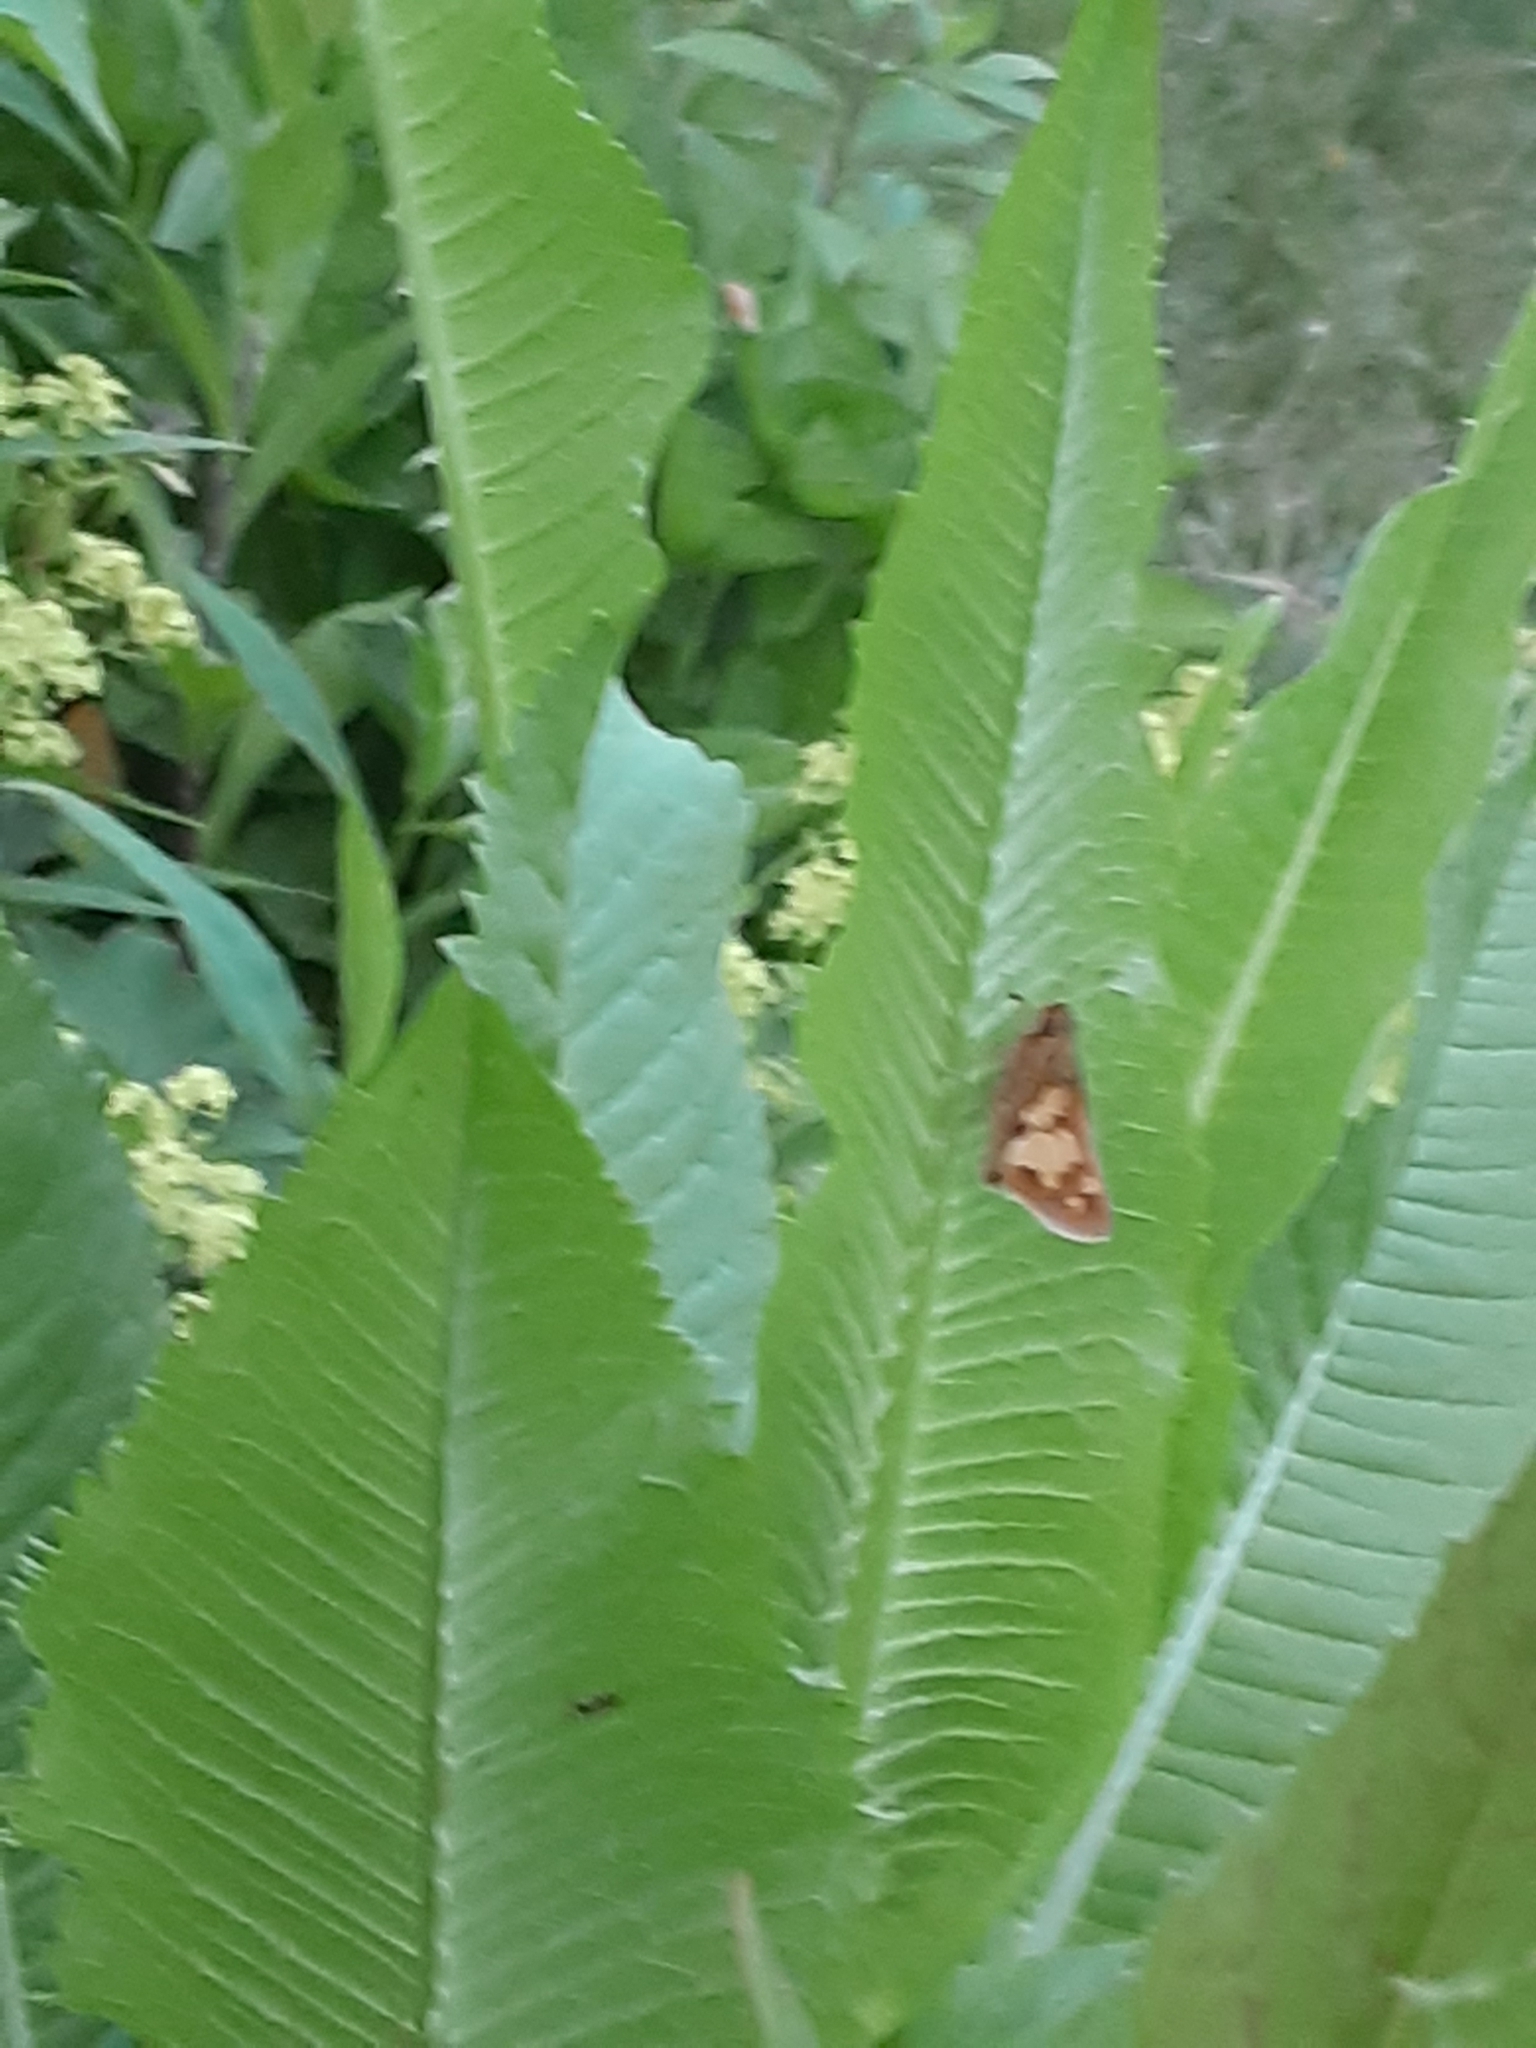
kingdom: Animalia
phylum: Arthropoda
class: Insecta
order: Lepidoptera
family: Hesperiidae
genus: Polites
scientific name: Polites coras
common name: Peck's skipper
